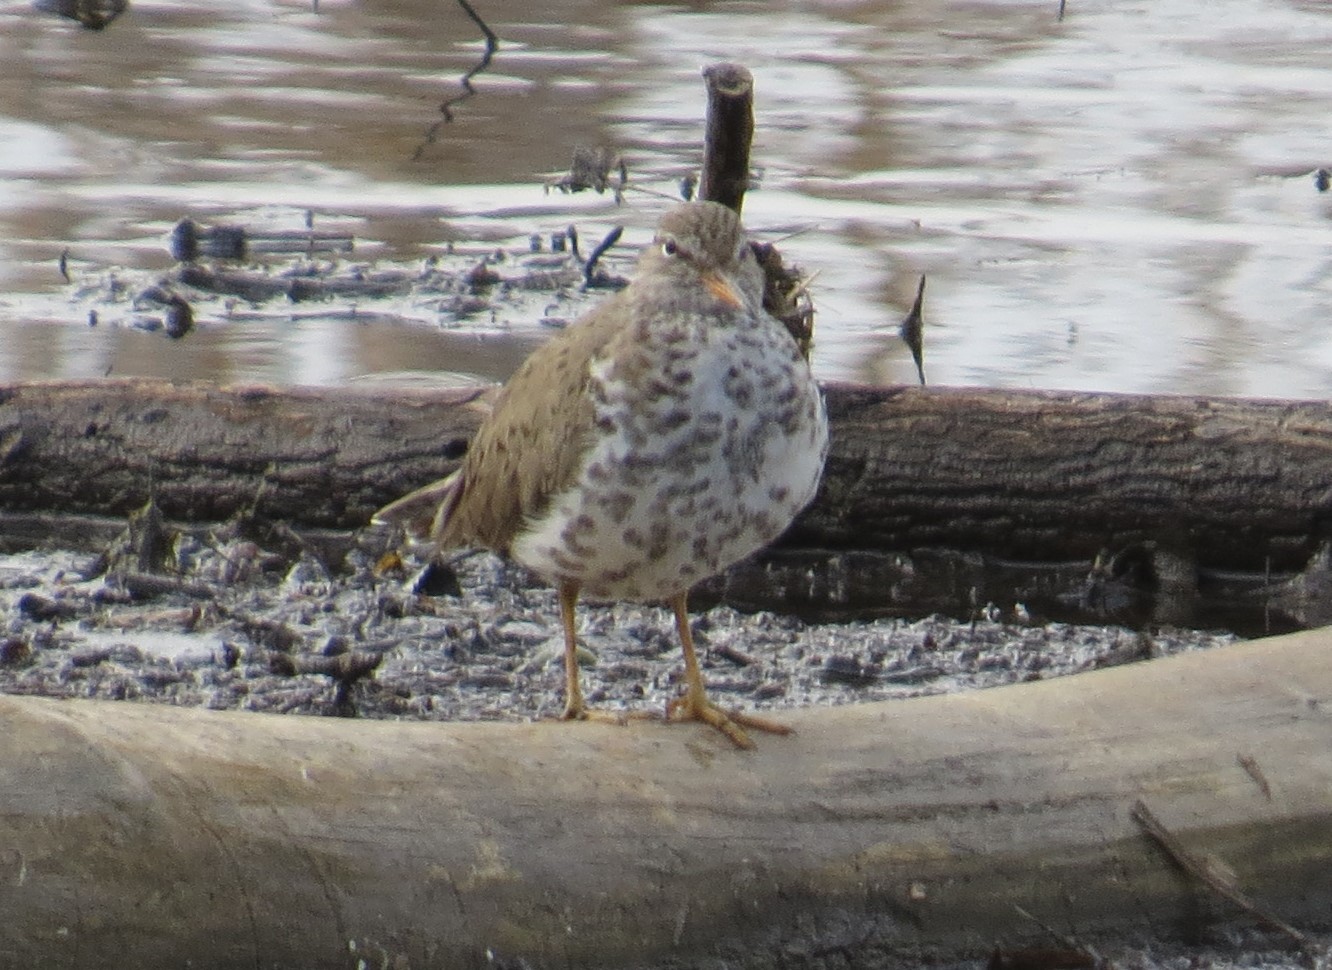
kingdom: Animalia
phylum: Chordata
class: Aves
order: Charadriiformes
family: Scolopacidae
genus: Actitis
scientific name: Actitis macularius
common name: Spotted sandpiper
